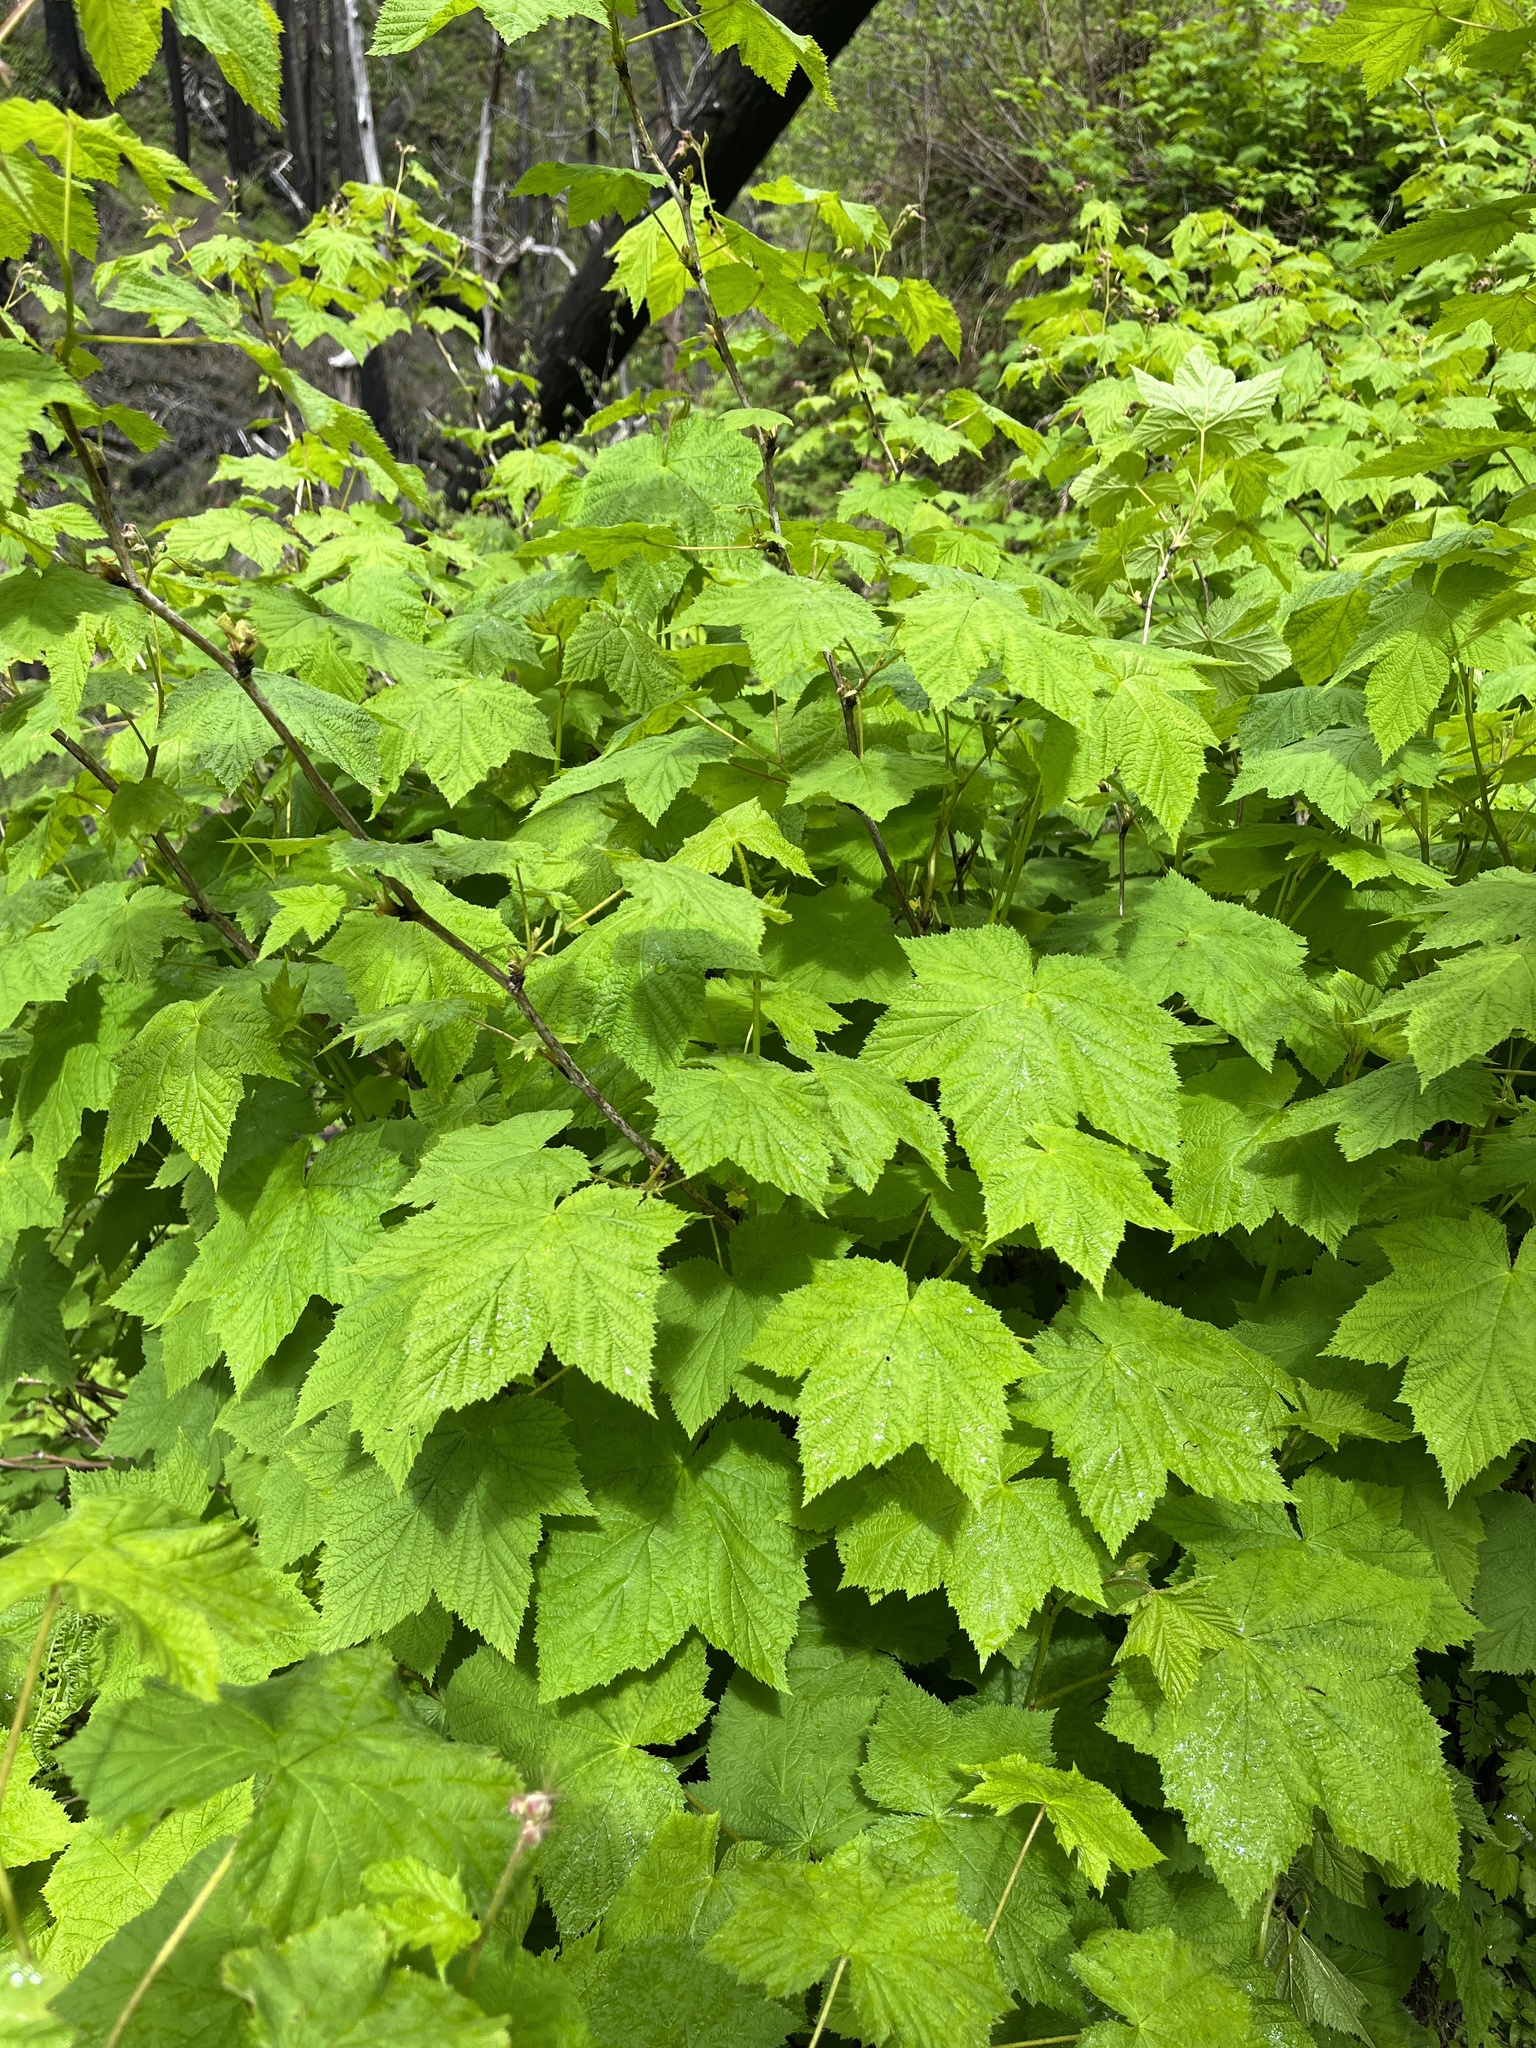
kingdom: Plantae
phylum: Tracheophyta
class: Magnoliopsida
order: Rosales
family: Rosaceae
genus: Rubus
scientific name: Rubus parviflorus
